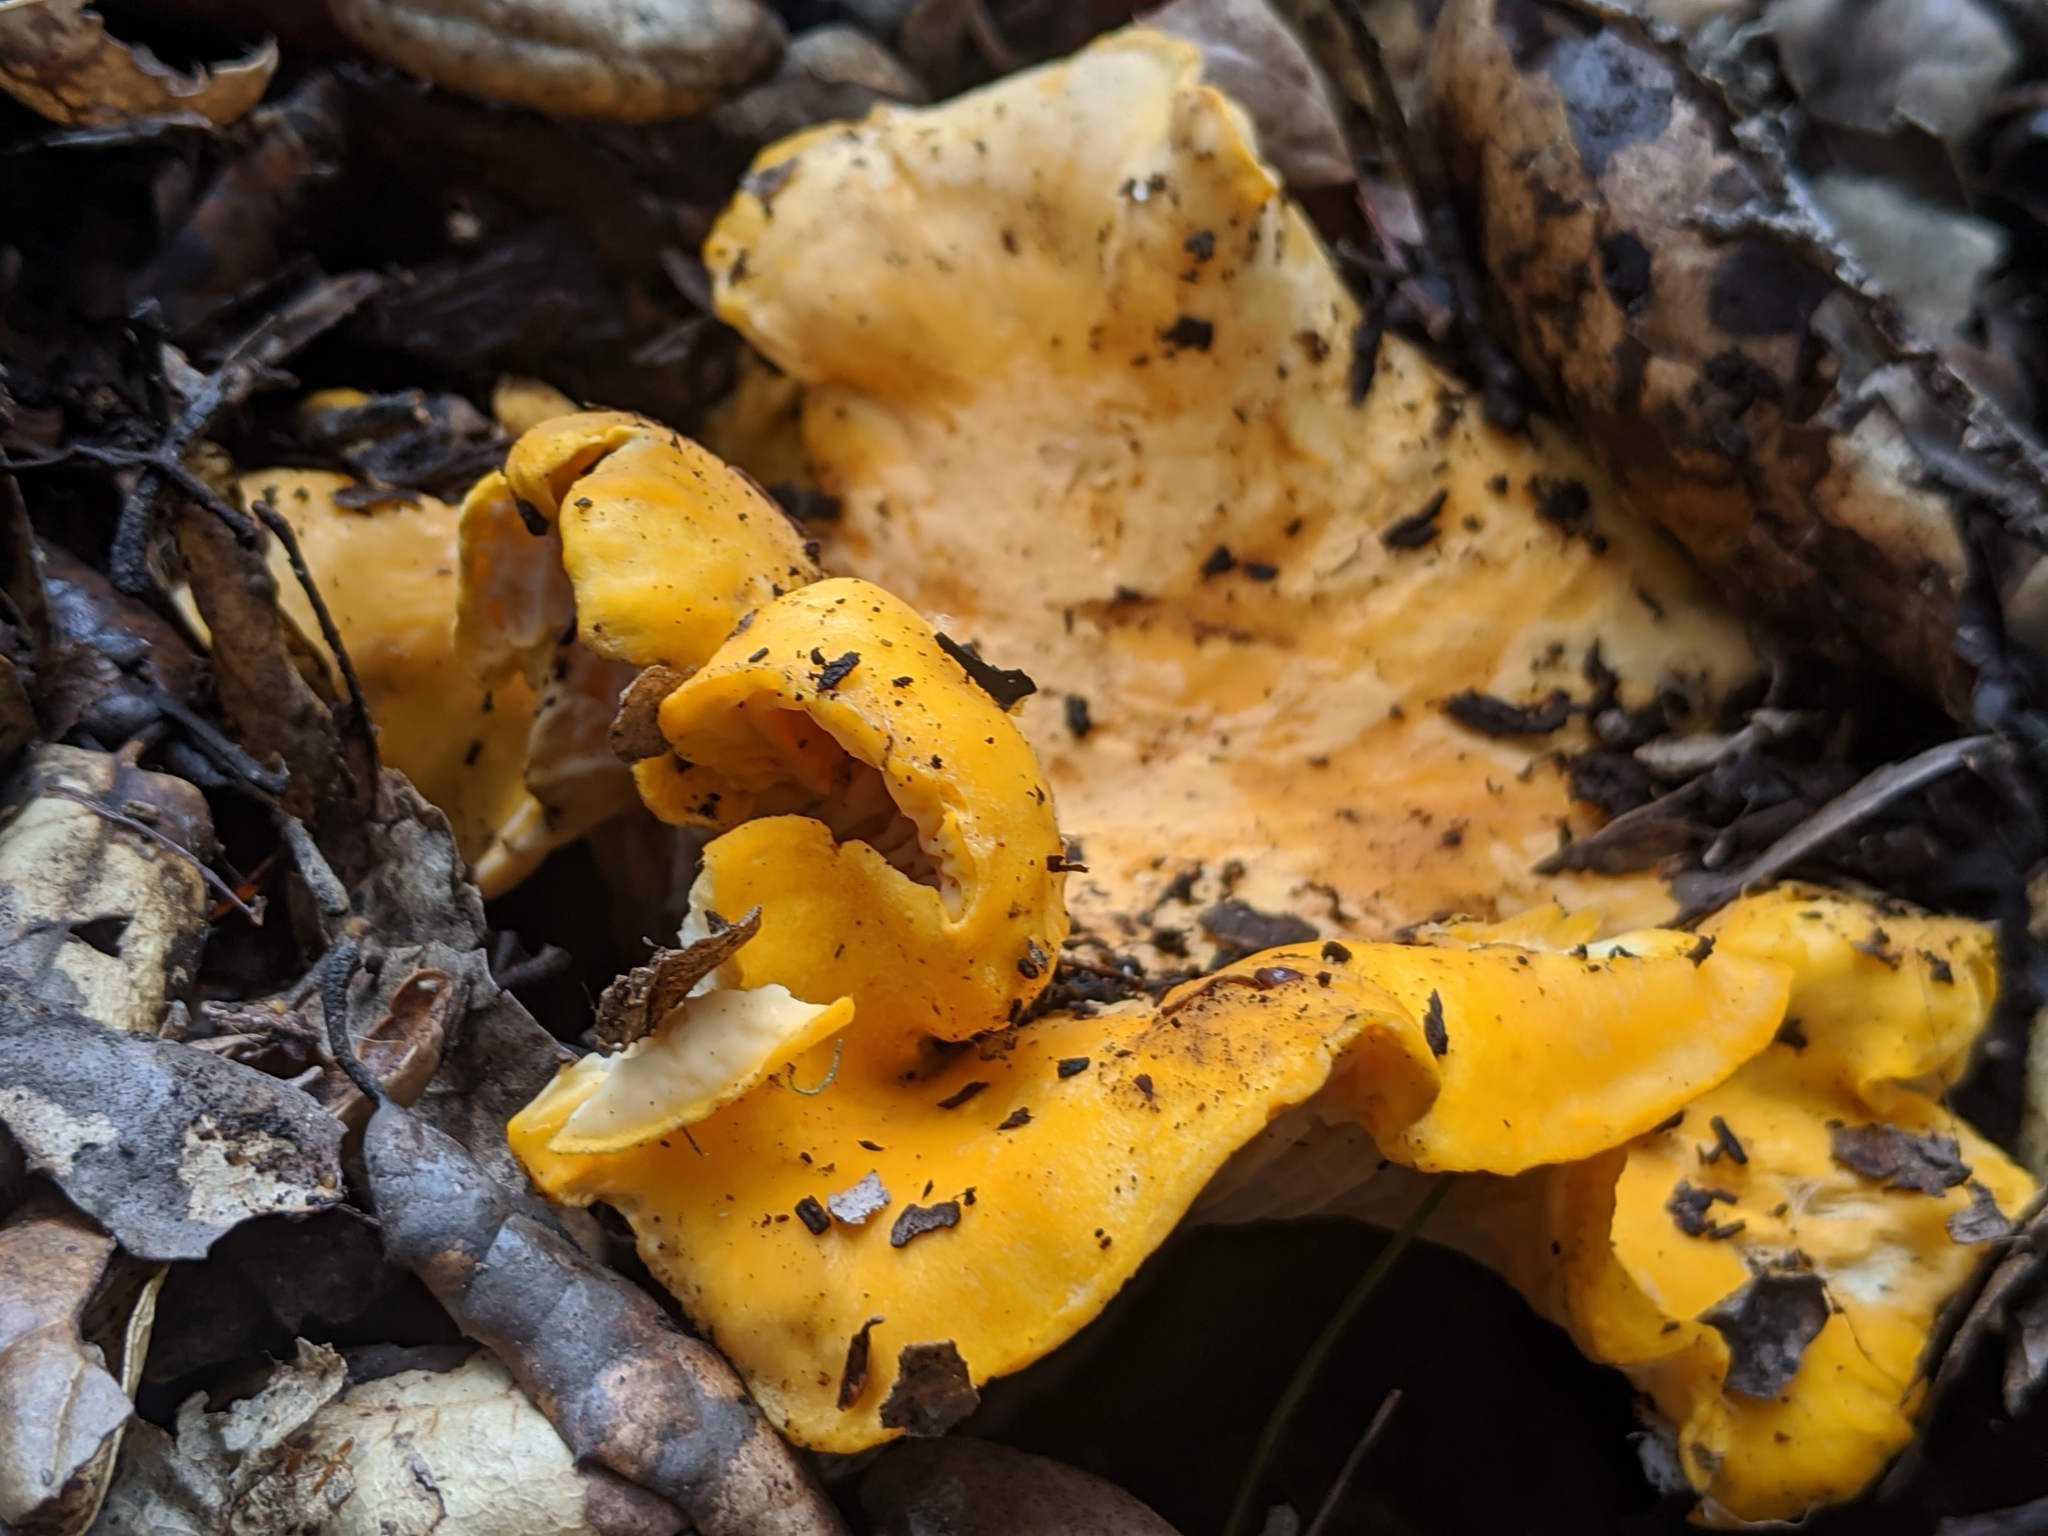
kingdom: Fungi
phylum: Basidiomycota
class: Agaricomycetes
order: Cantharellales
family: Hydnaceae
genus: Cantharellus
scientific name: Cantharellus californicus
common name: California golden chanterelle
